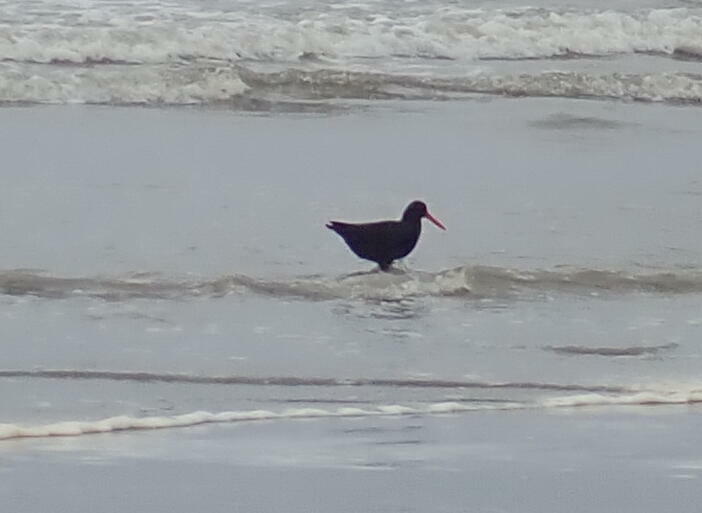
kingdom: Animalia
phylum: Chordata
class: Aves
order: Charadriiformes
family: Haematopodidae
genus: Haematopus
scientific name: Haematopus unicolor
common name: Variable oystercatcher
